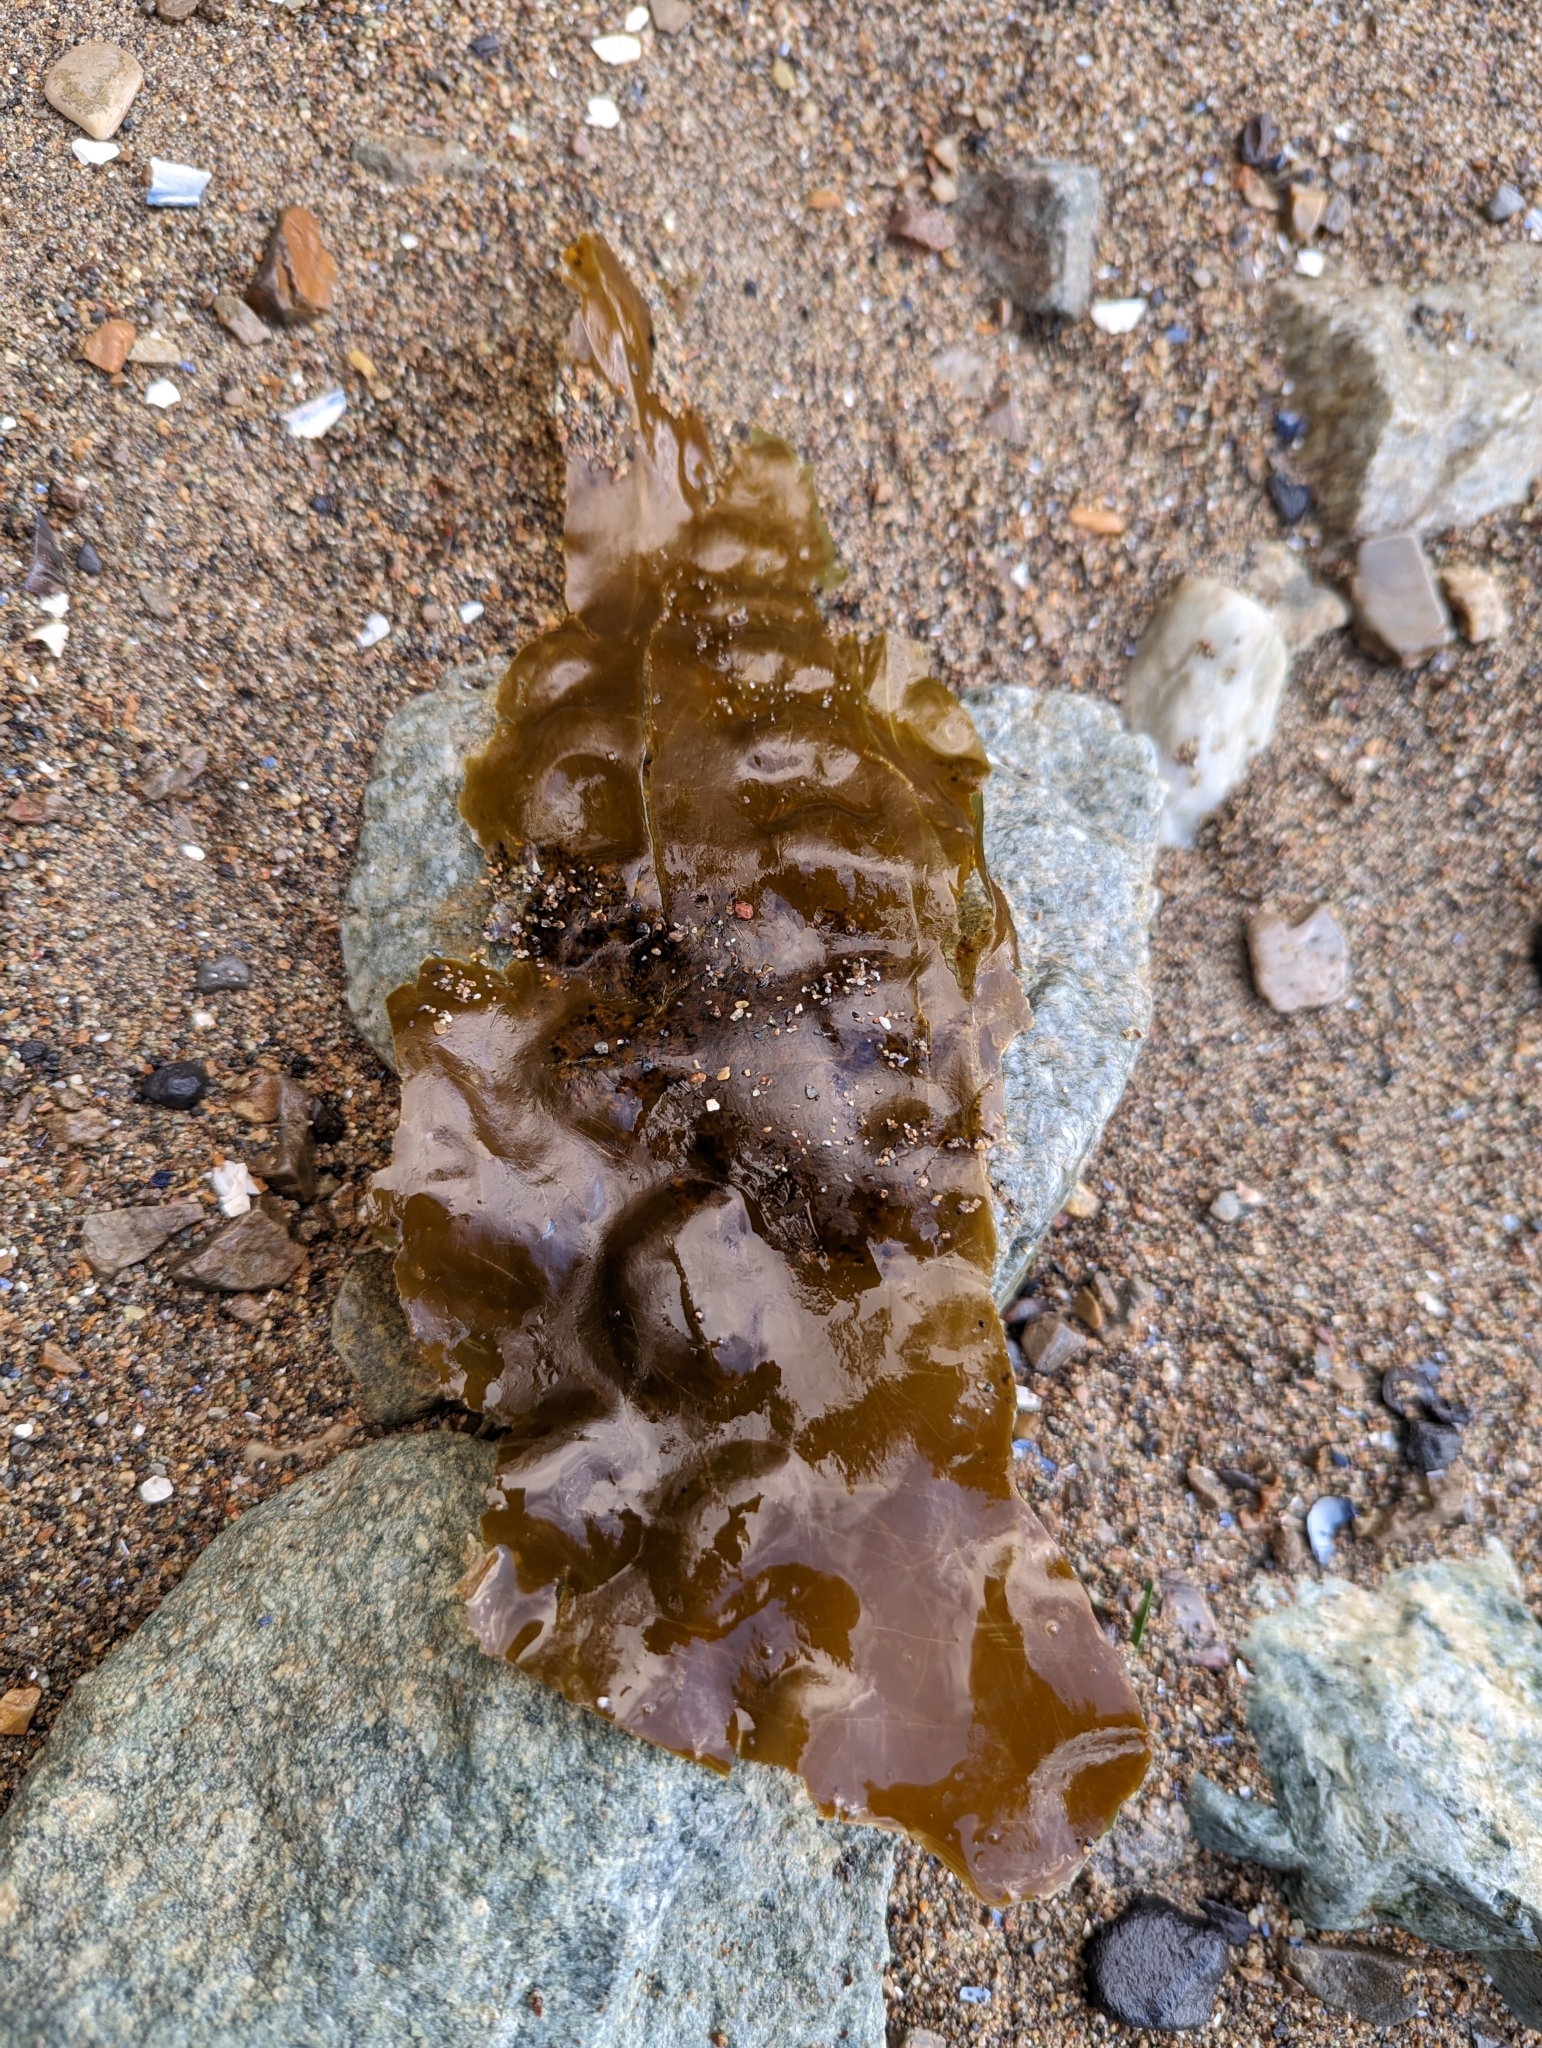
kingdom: Chromista
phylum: Ochrophyta
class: Phaeophyceae
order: Laminariales
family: Laminariaceae
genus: Saccharina
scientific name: Saccharina latissima
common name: Poor man's weather glass
